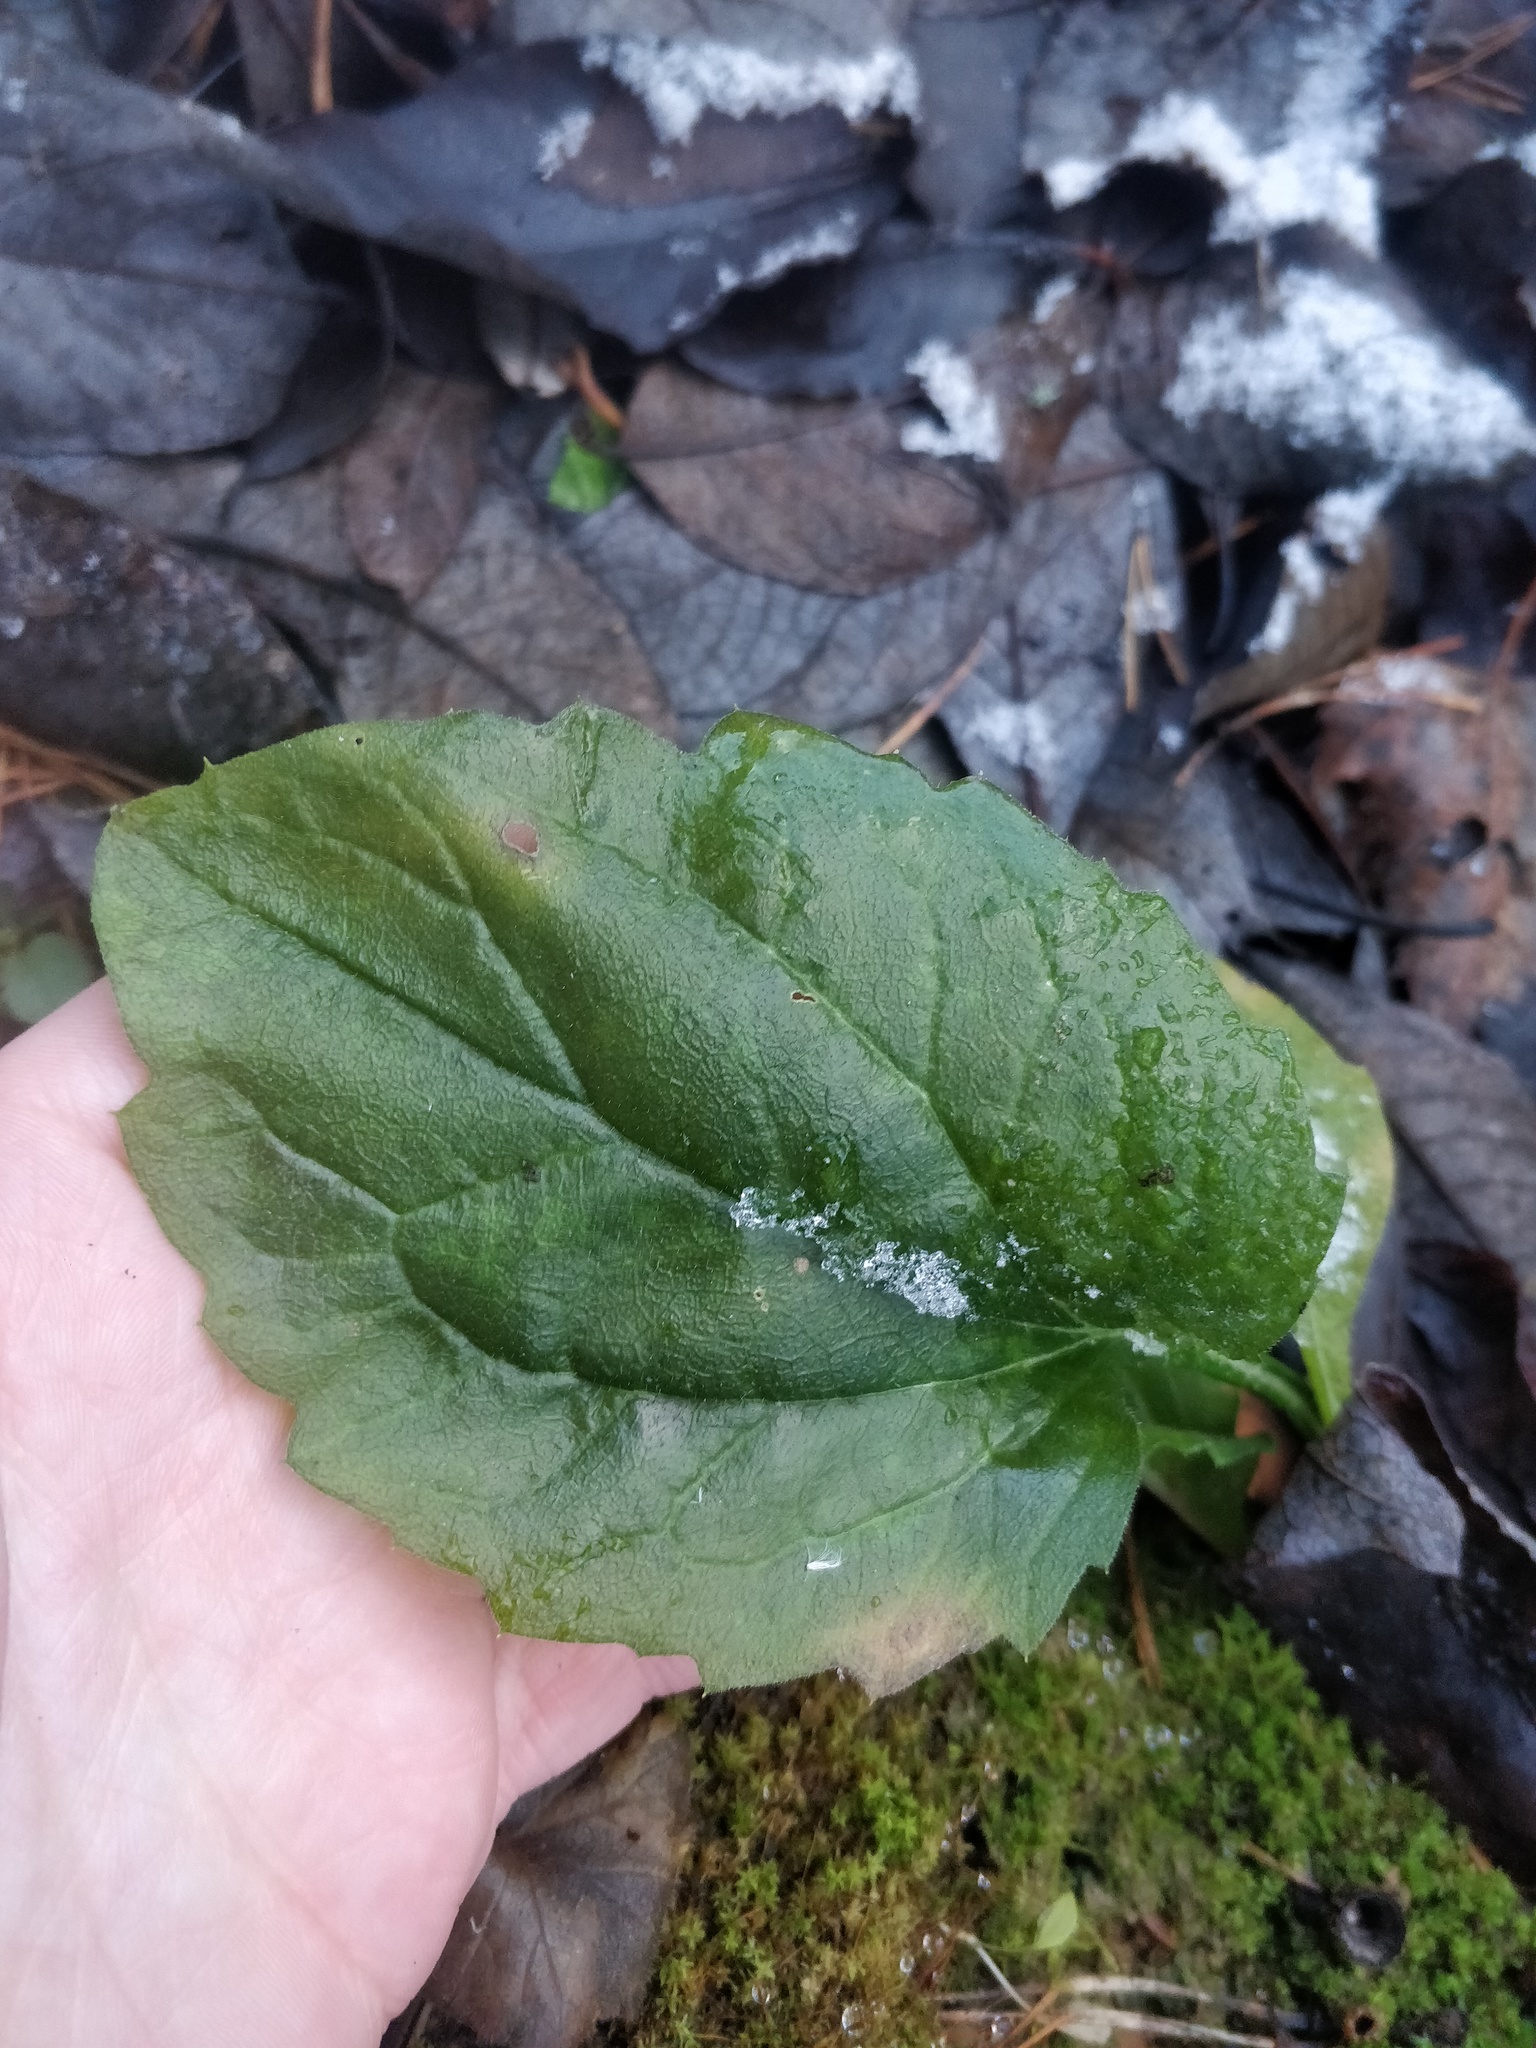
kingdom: Plantae
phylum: Tracheophyta
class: Magnoliopsida
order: Asterales
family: Asteraceae
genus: Erigeron
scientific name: Erigeron annuus
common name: Tall fleabane
